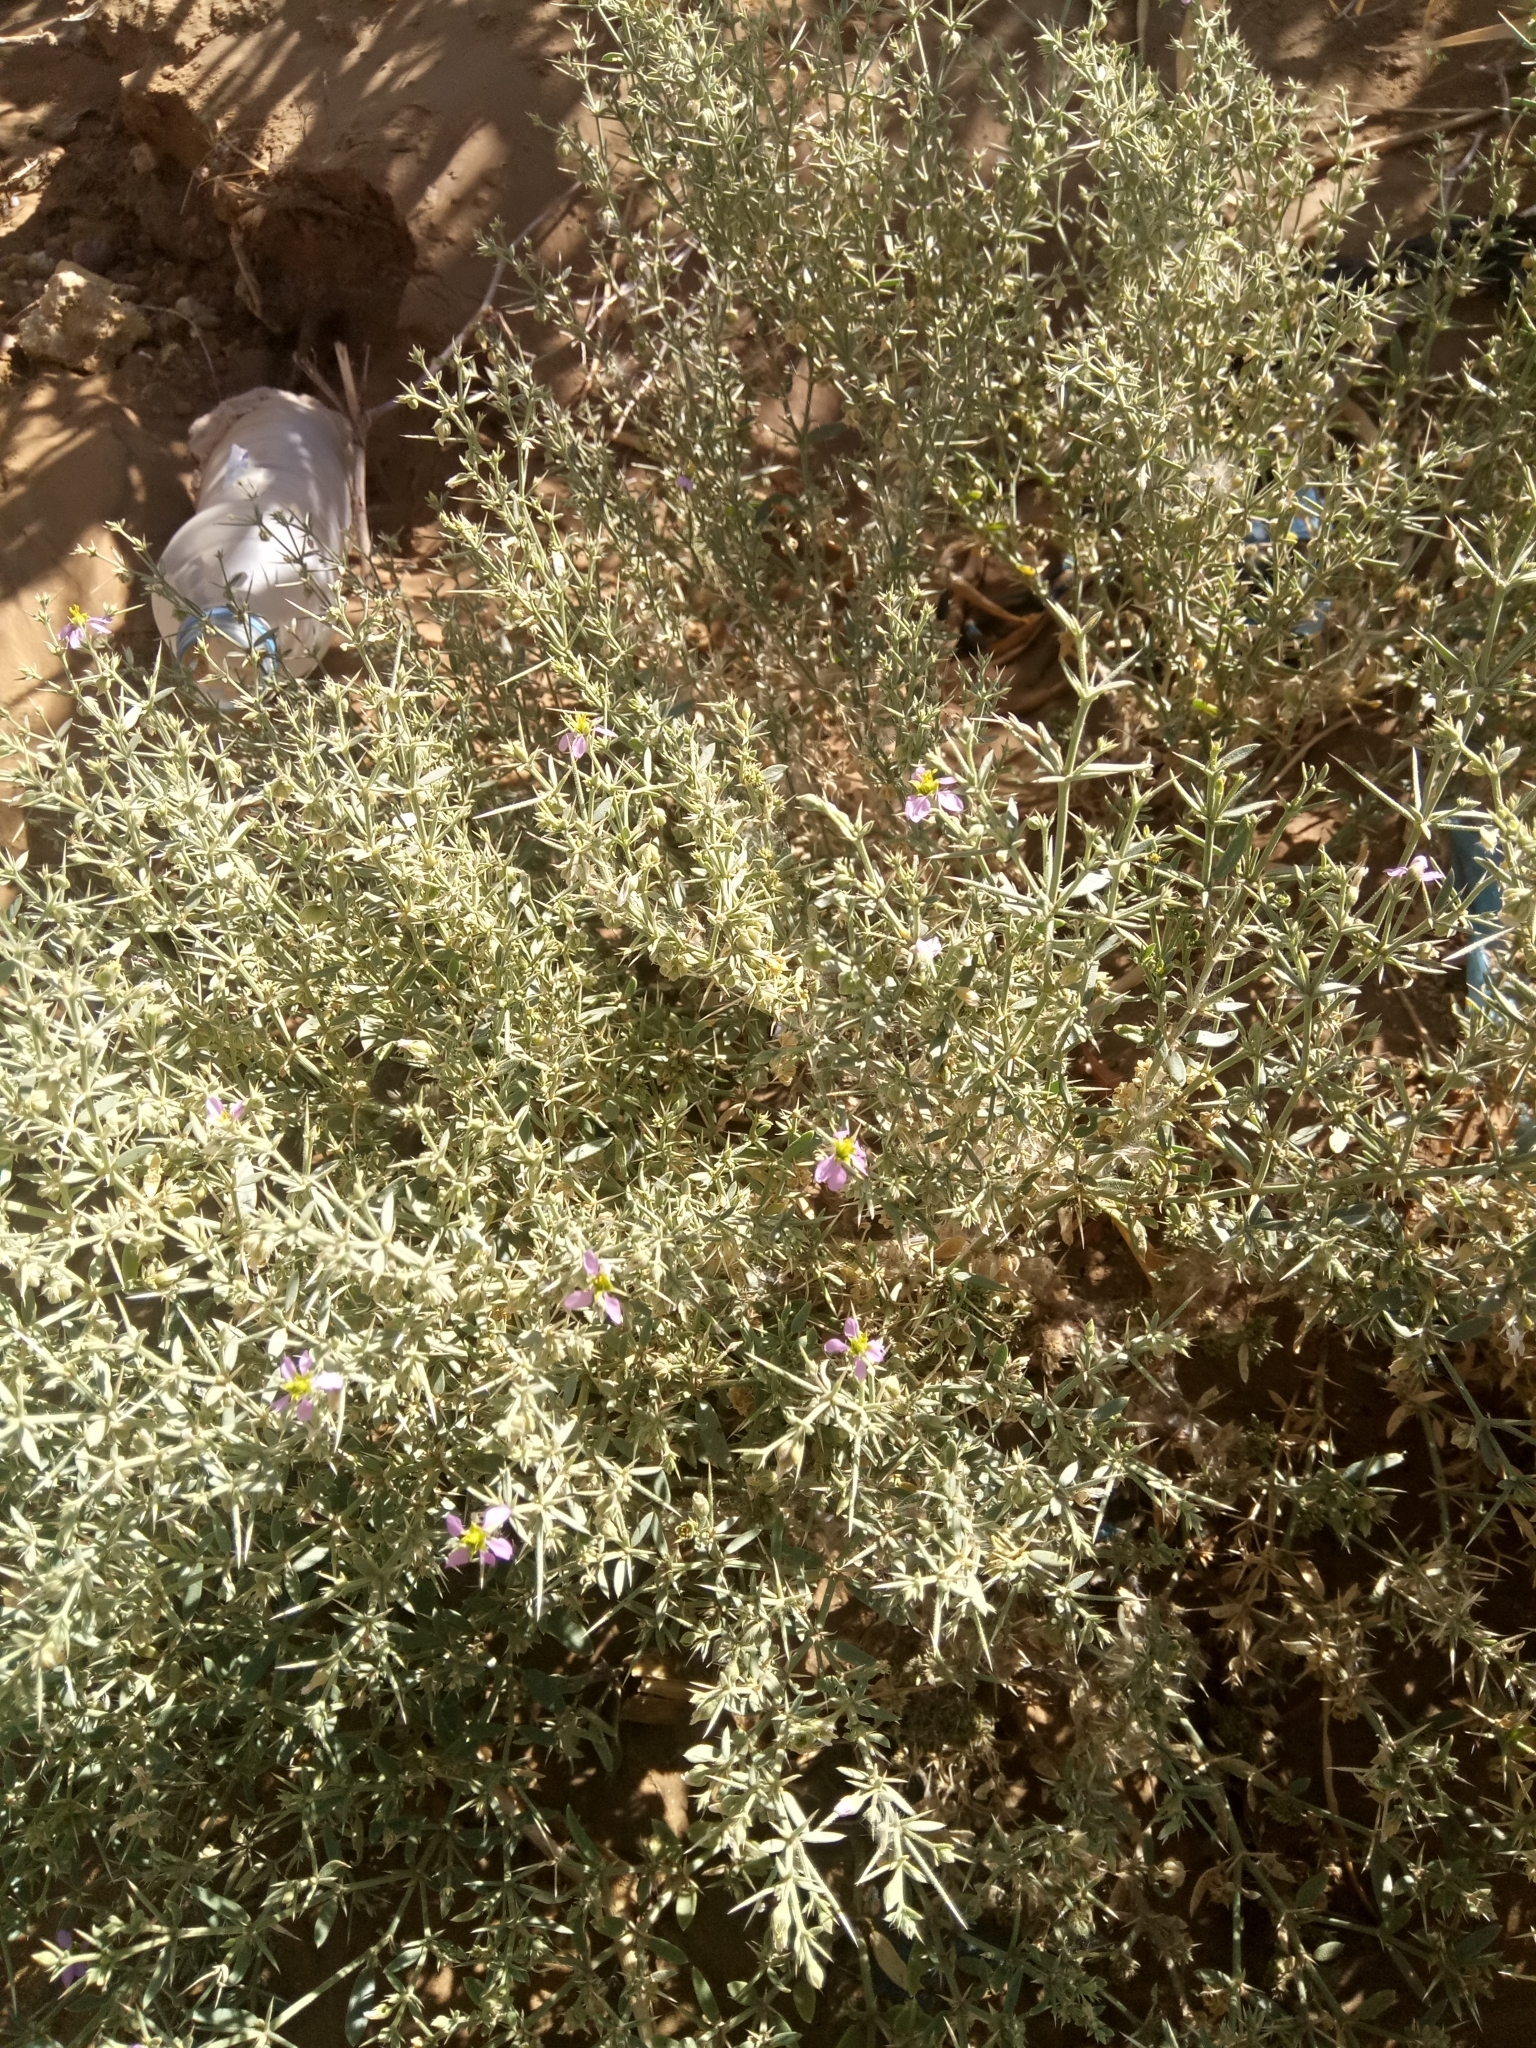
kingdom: Plantae
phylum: Tracheophyta
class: Magnoliopsida
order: Zygophyllales
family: Zygophyllaceae
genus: Fagonia
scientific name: Fagonia olivieri
